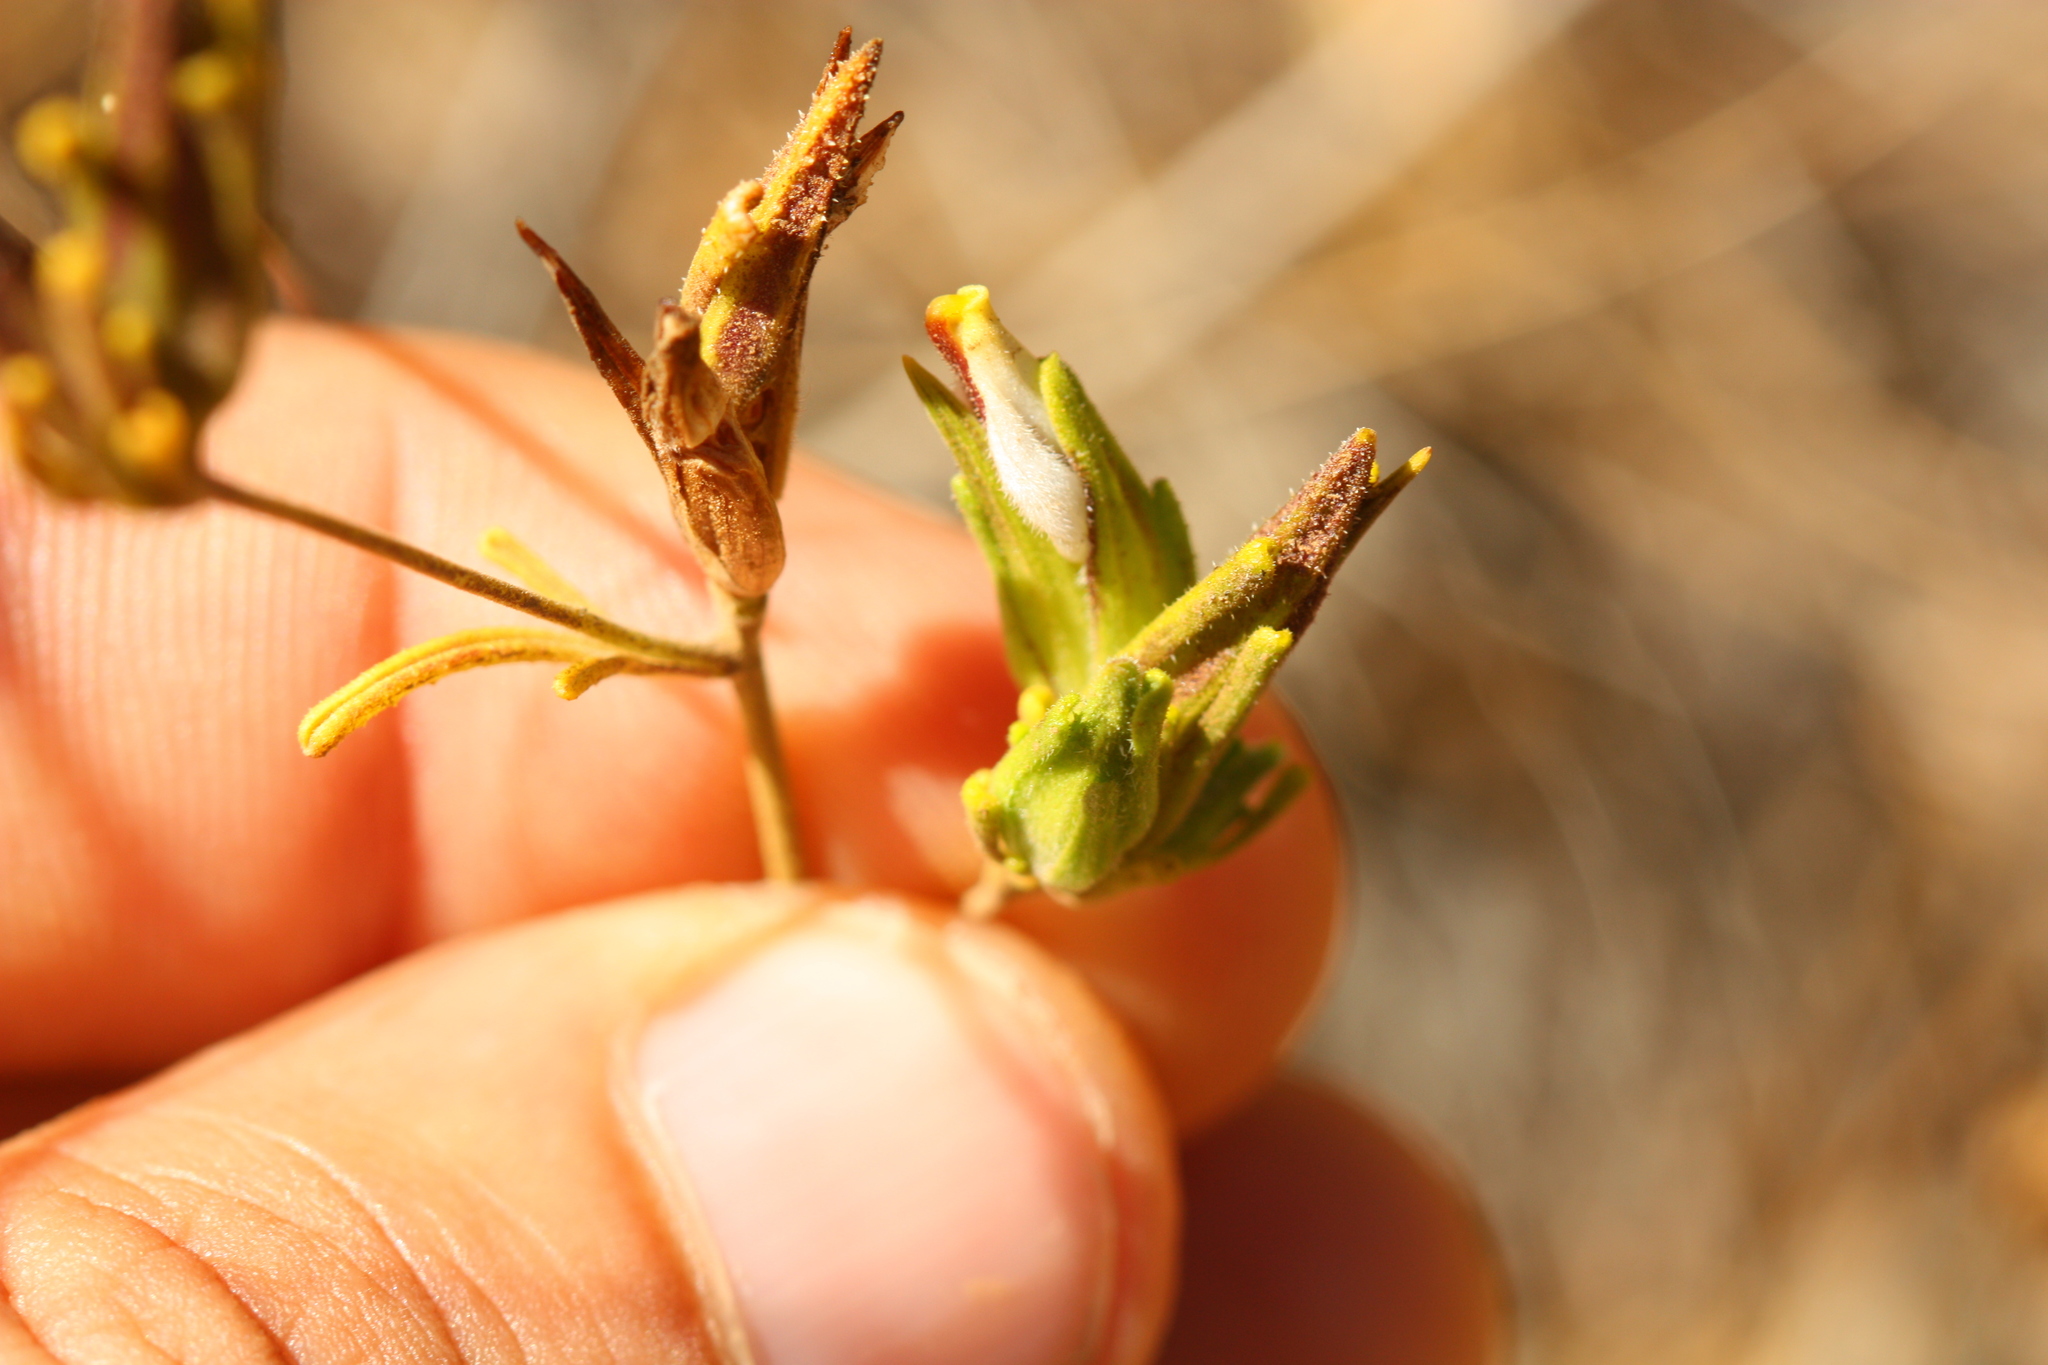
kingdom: Plantae
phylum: Tracheophyta
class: Magnoliopsida
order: Lamiales
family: Orobanchaceae
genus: Cordylanthus
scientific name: Cordylanthus rigidus
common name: Stiff-branch bird's-beak
